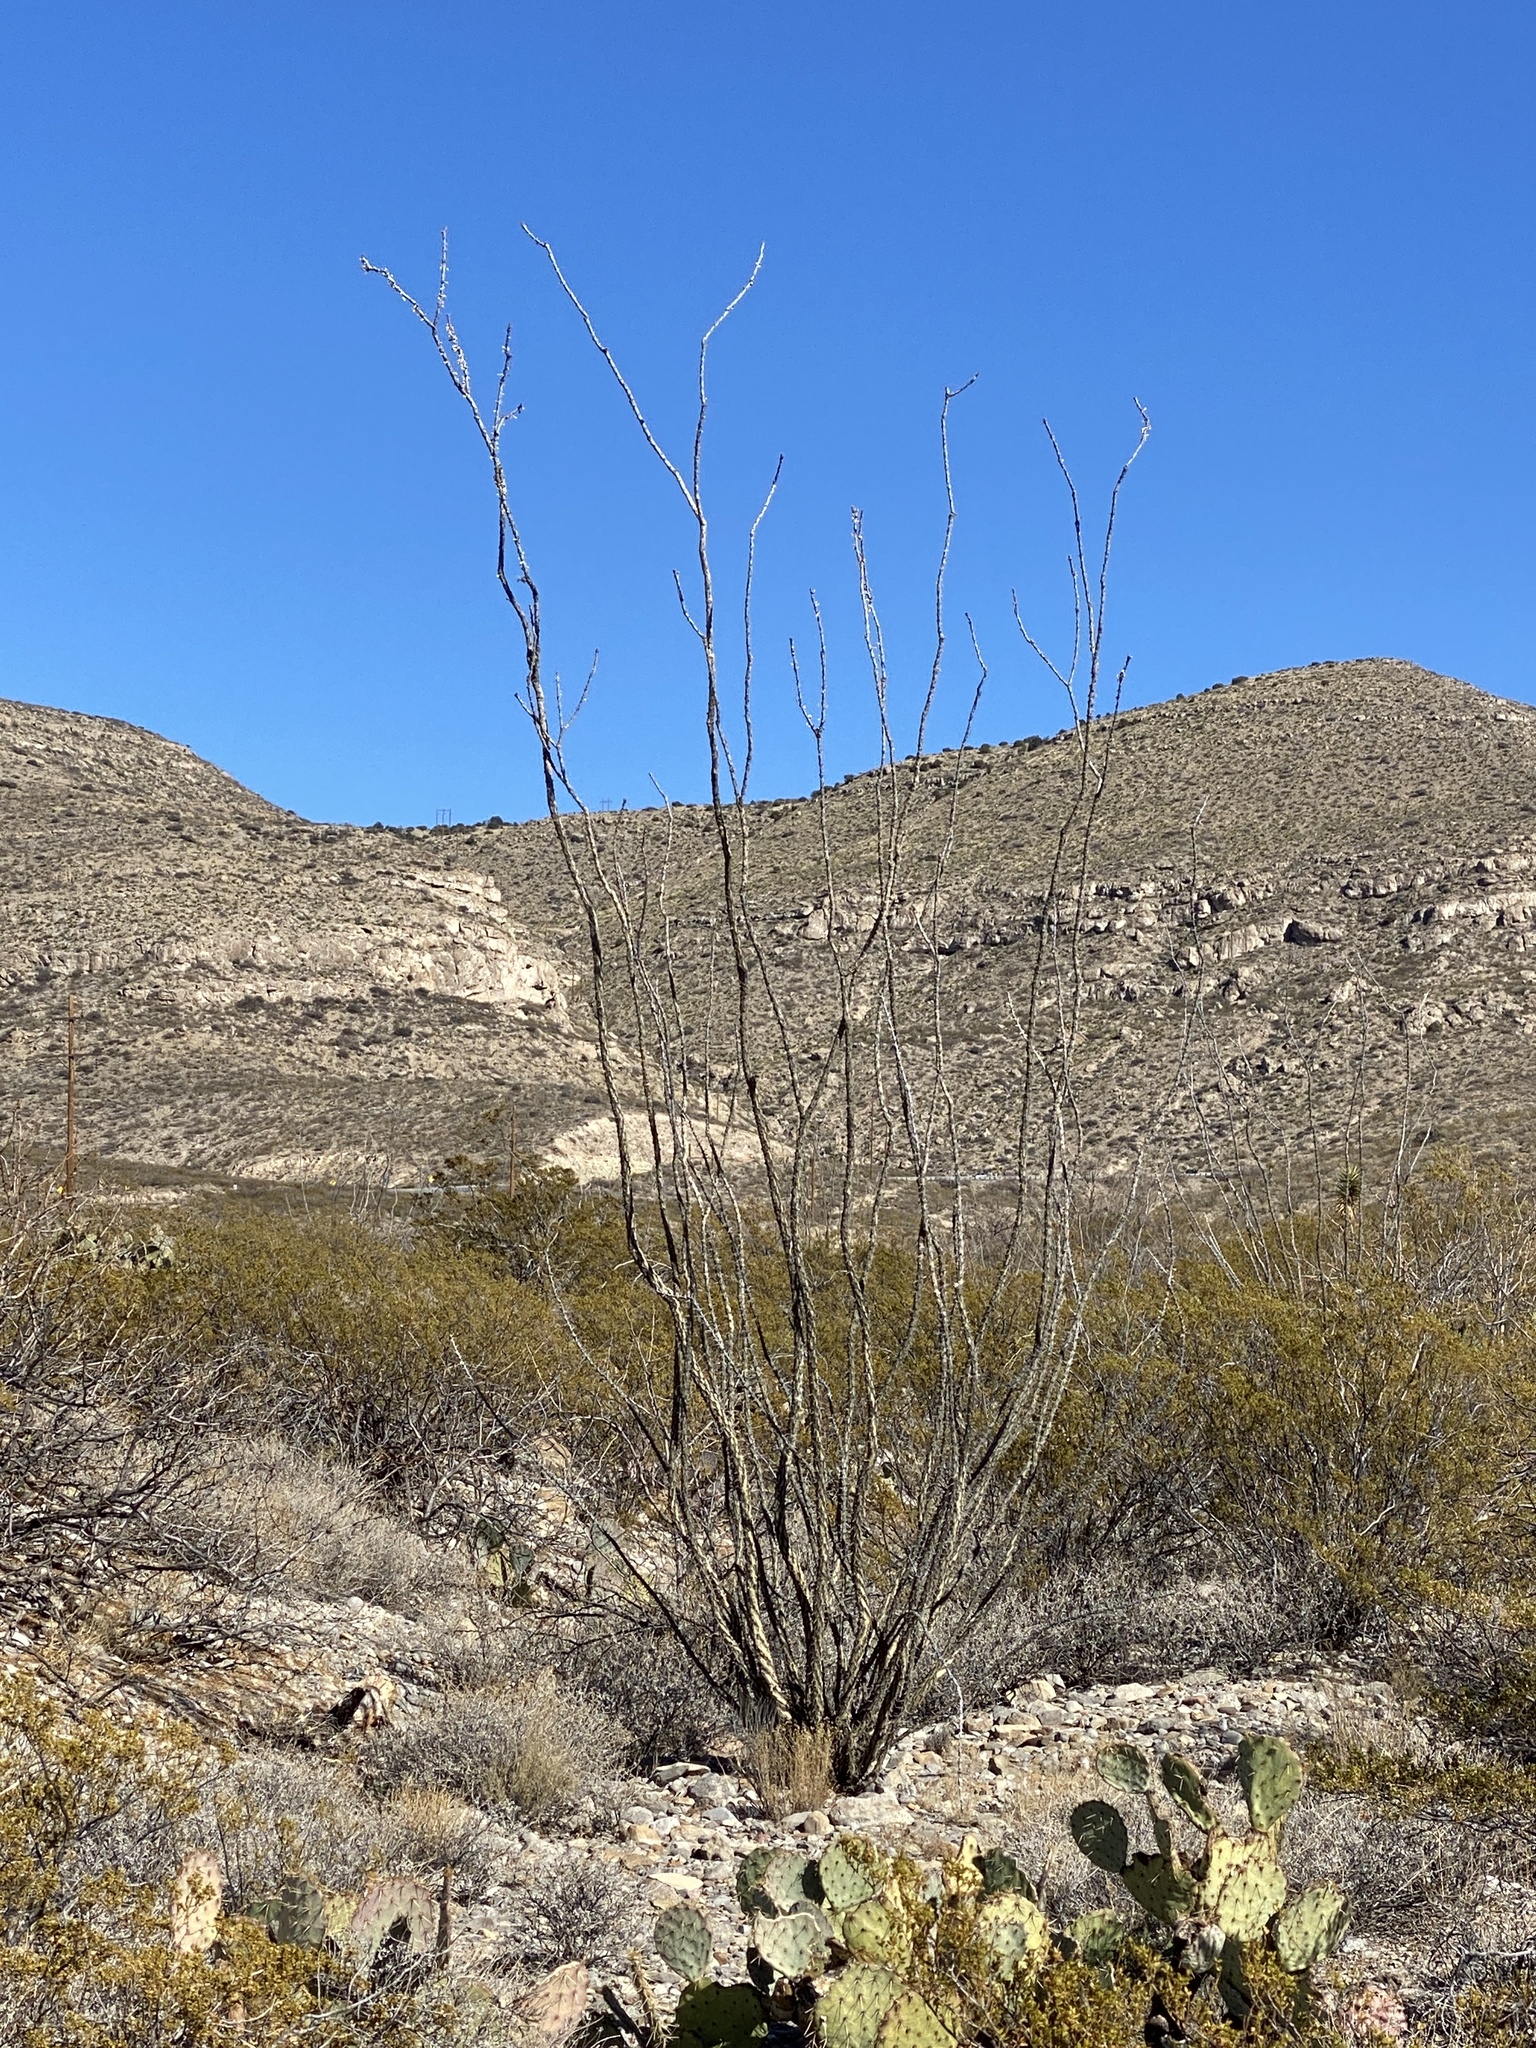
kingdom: Plantae
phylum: Tracheophyta
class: Magnoliopsida
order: Ericales
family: Fouquieriaceae
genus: Fouquieria
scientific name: Fouquieria splendens
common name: Vine-cactus
